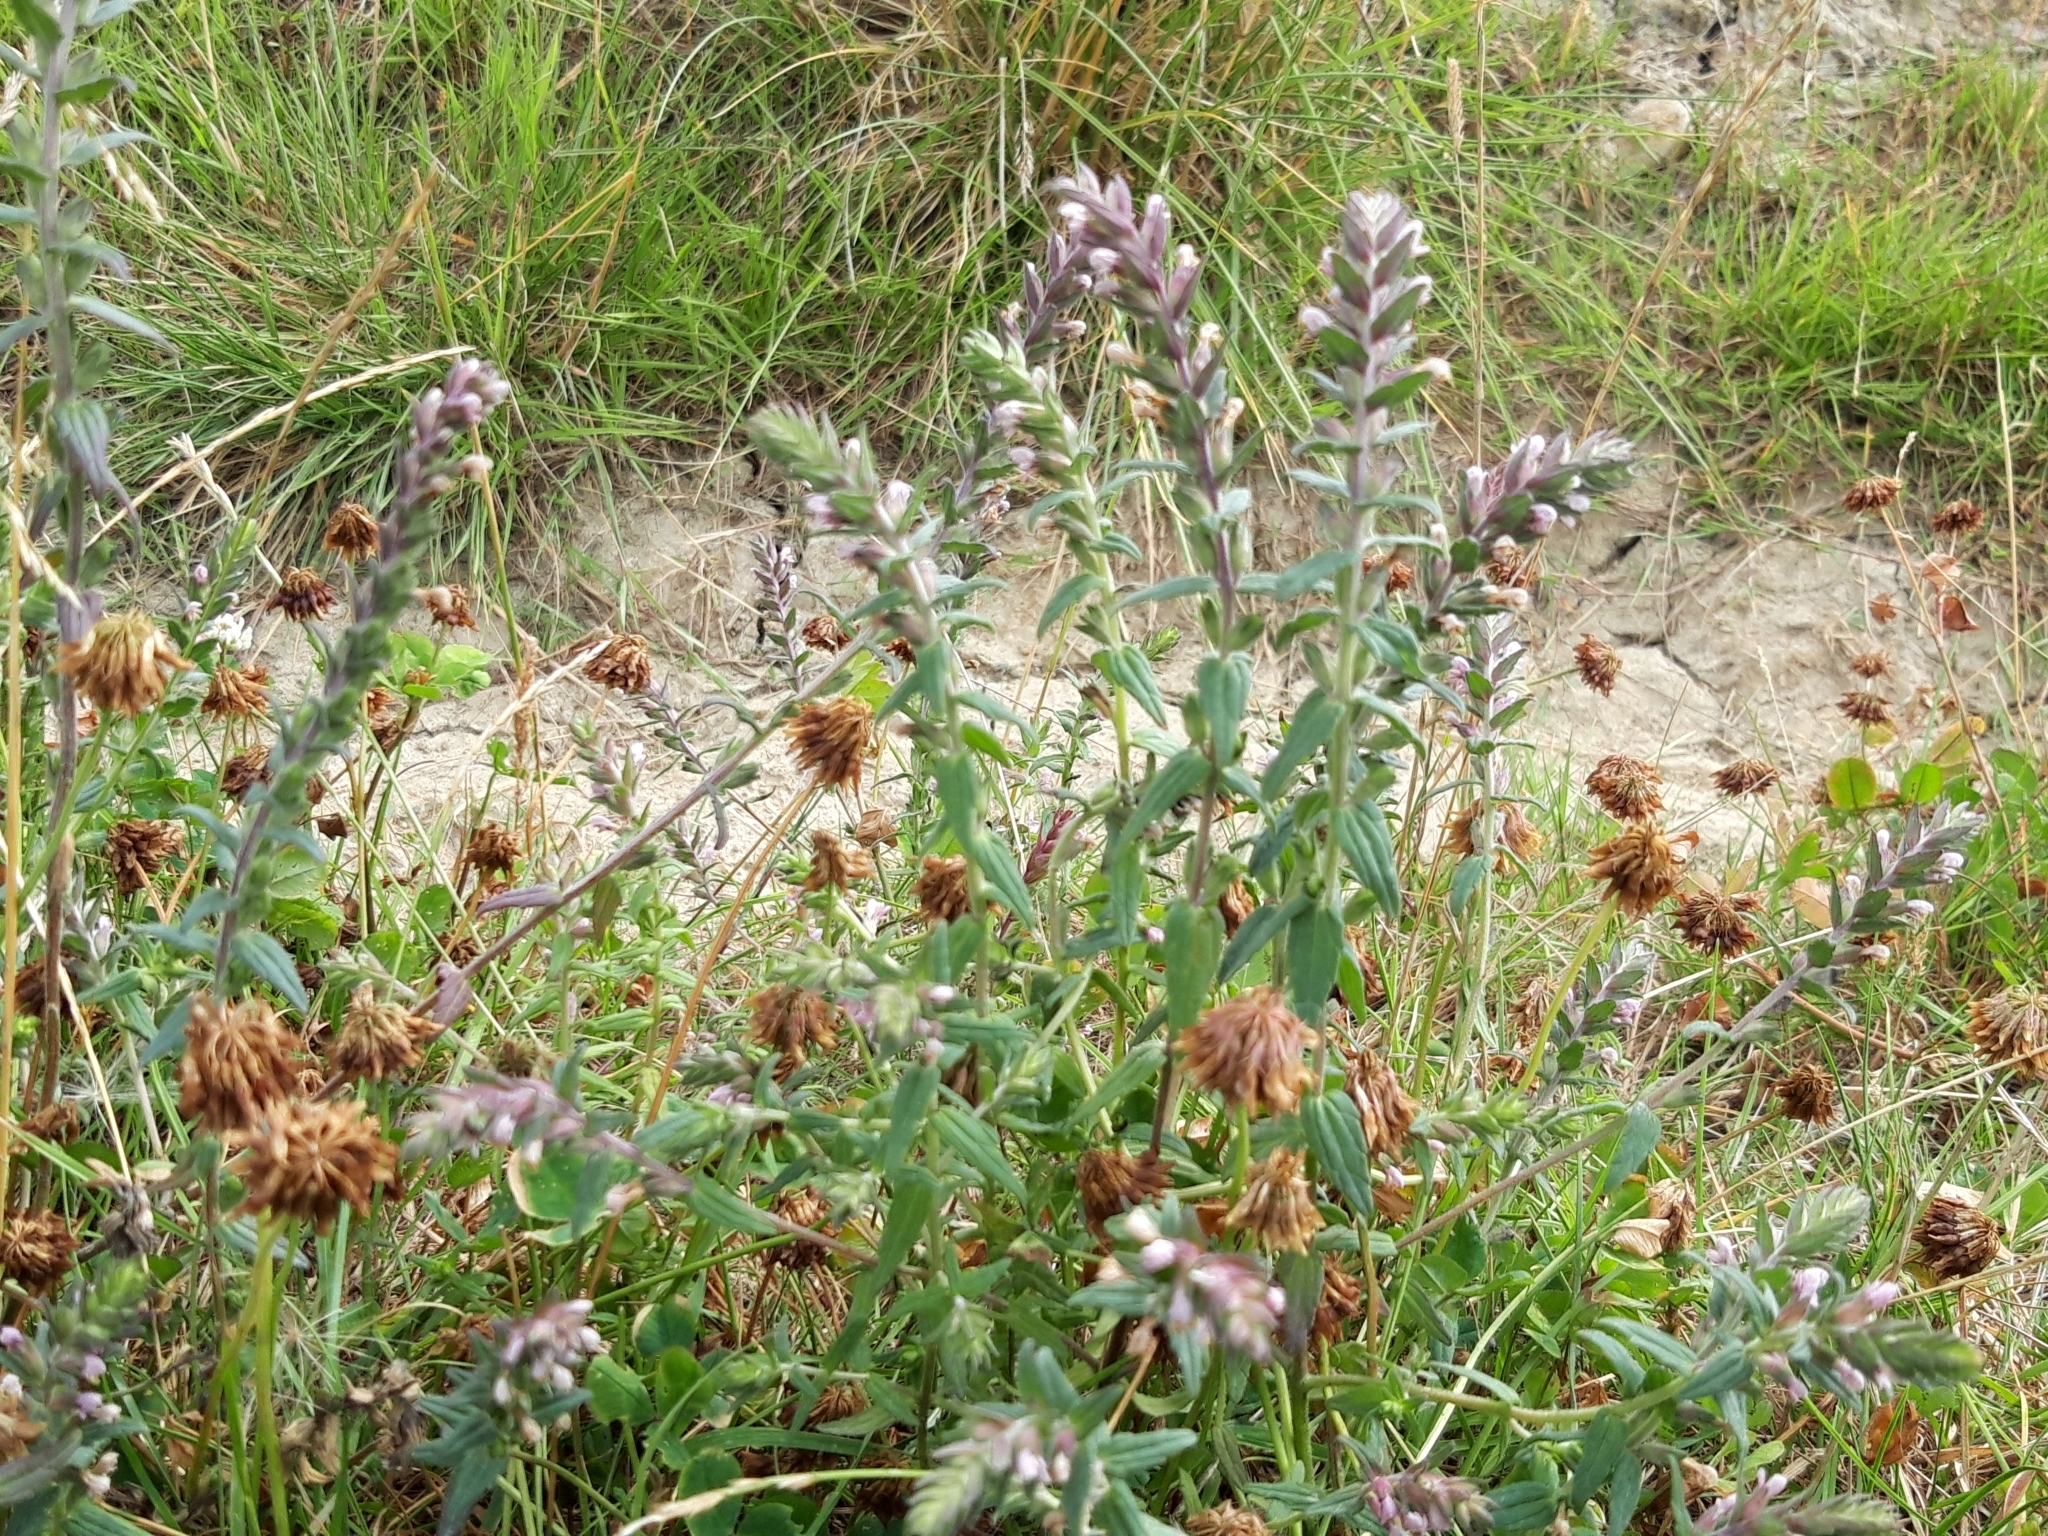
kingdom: Plantae
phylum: Tracheophyta
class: Magnoliopsida
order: Lamiales
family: Orobanchaceae
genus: Odontites
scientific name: Odontites vulgaris
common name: Broomrape
